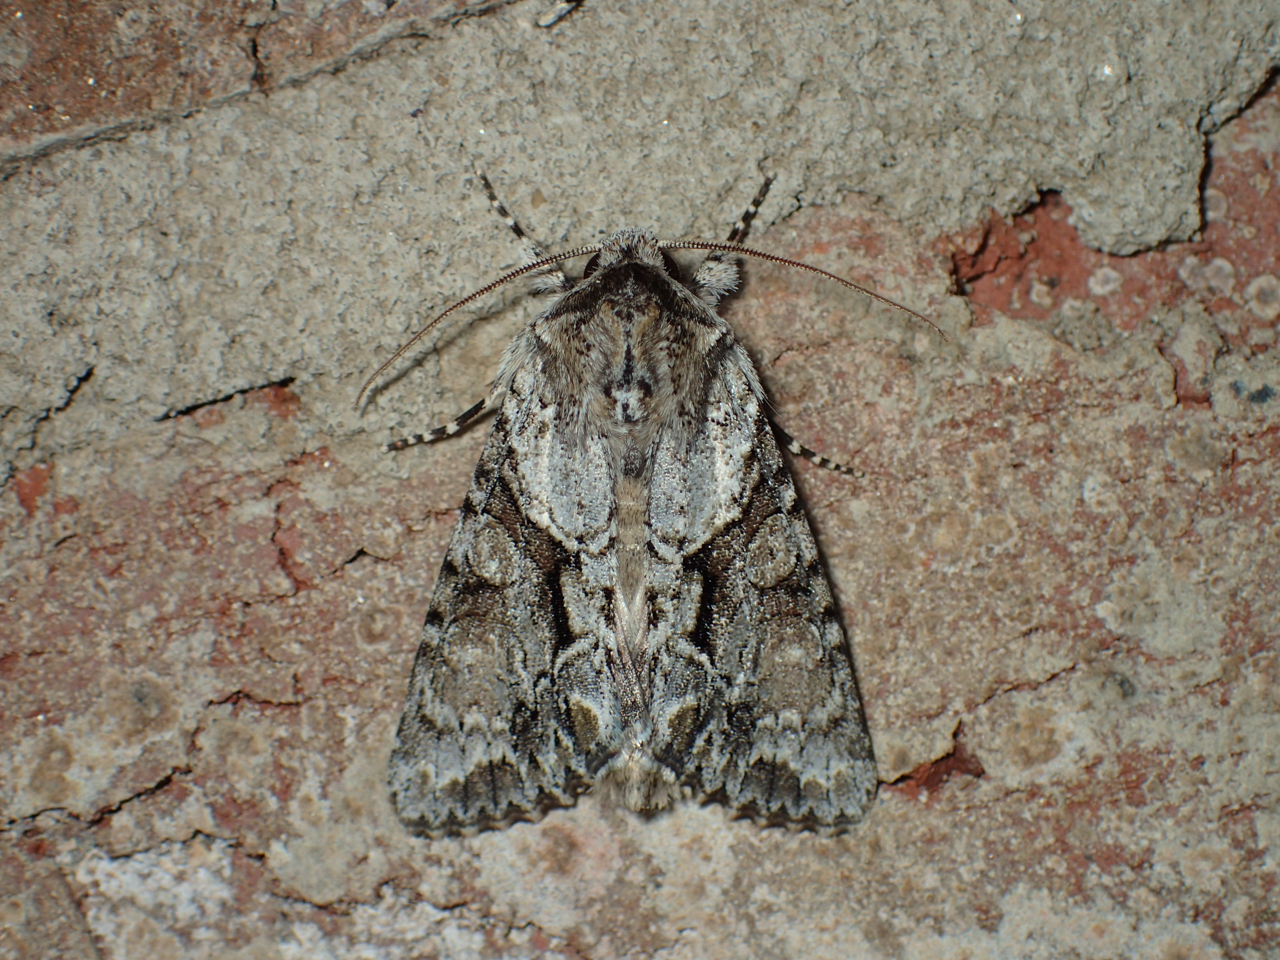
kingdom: Animalia
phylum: Arthropoda
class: Insecta
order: Lepidoptera
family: Noctuidae
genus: Achatia
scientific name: Achatia distincta
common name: Distinct quaker
